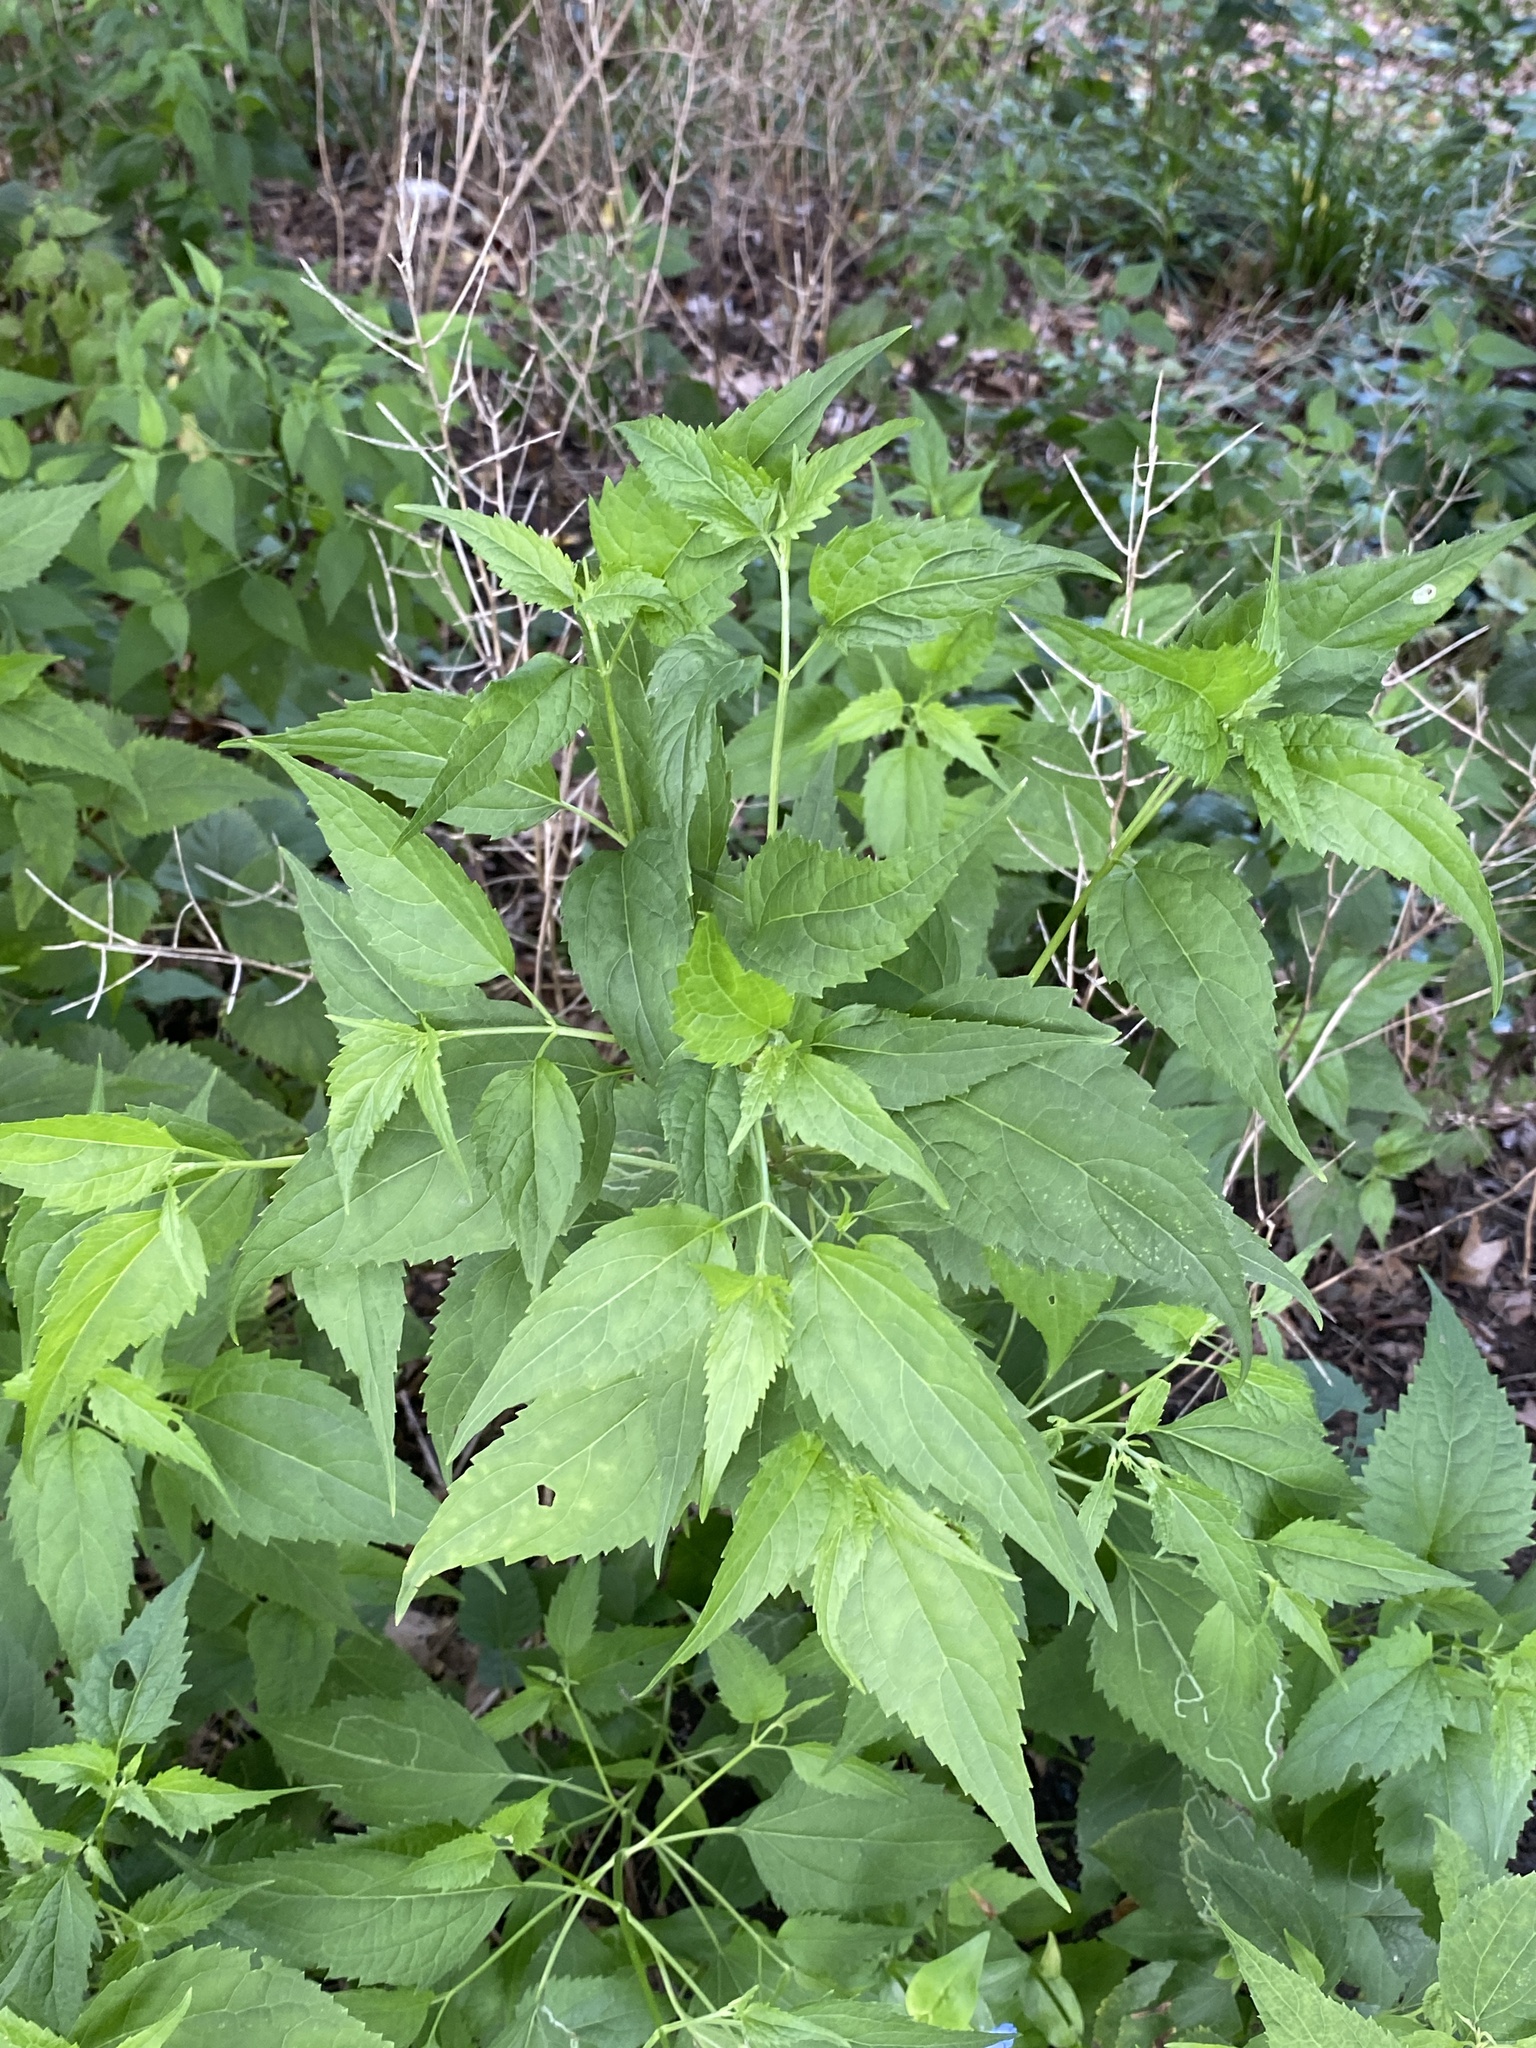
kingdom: Plantae
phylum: Tracheophyta
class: Magnoliopsida
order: Asterales
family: Asteraceae
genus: Ageratina
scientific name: Ageratina altissima
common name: White snakeroot
